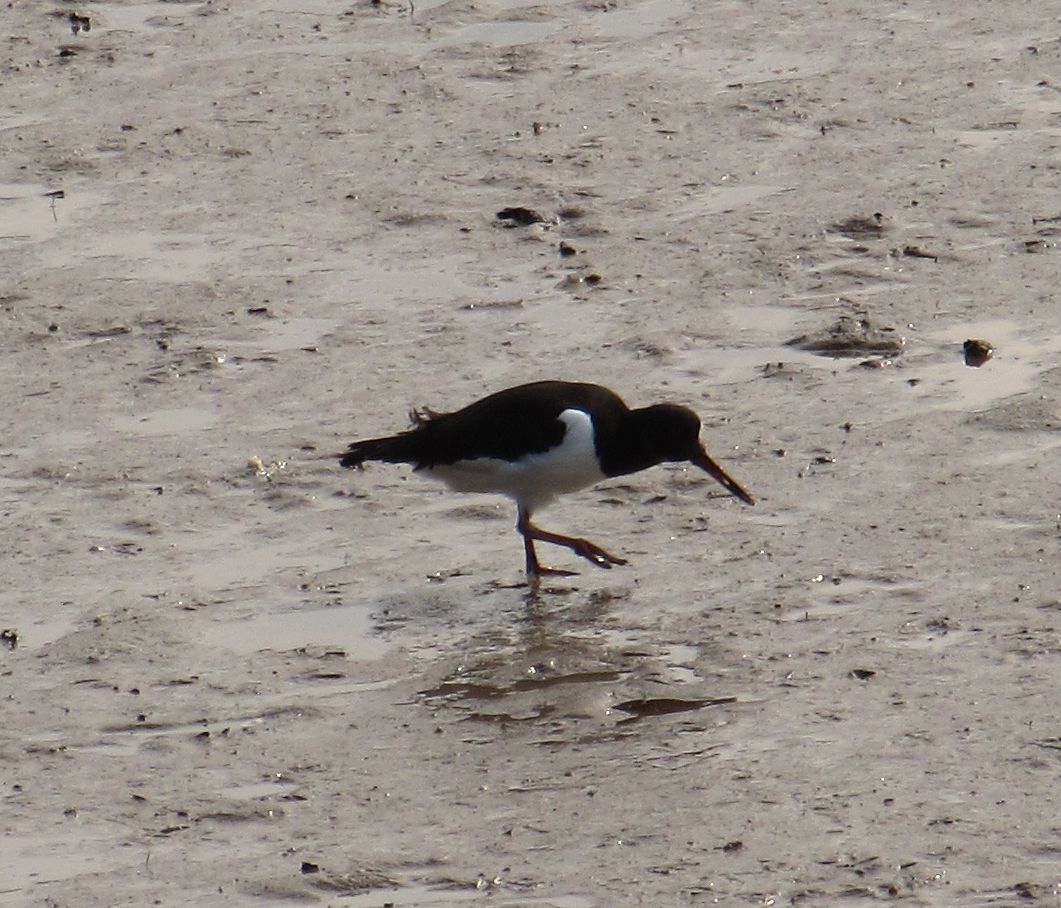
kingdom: Animalia
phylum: Chordata
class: Aves
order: Charadriiformes
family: Haematopodidae
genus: Haematopus
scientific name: Haematopus ostralegus
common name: Eurasian oystercatcher
